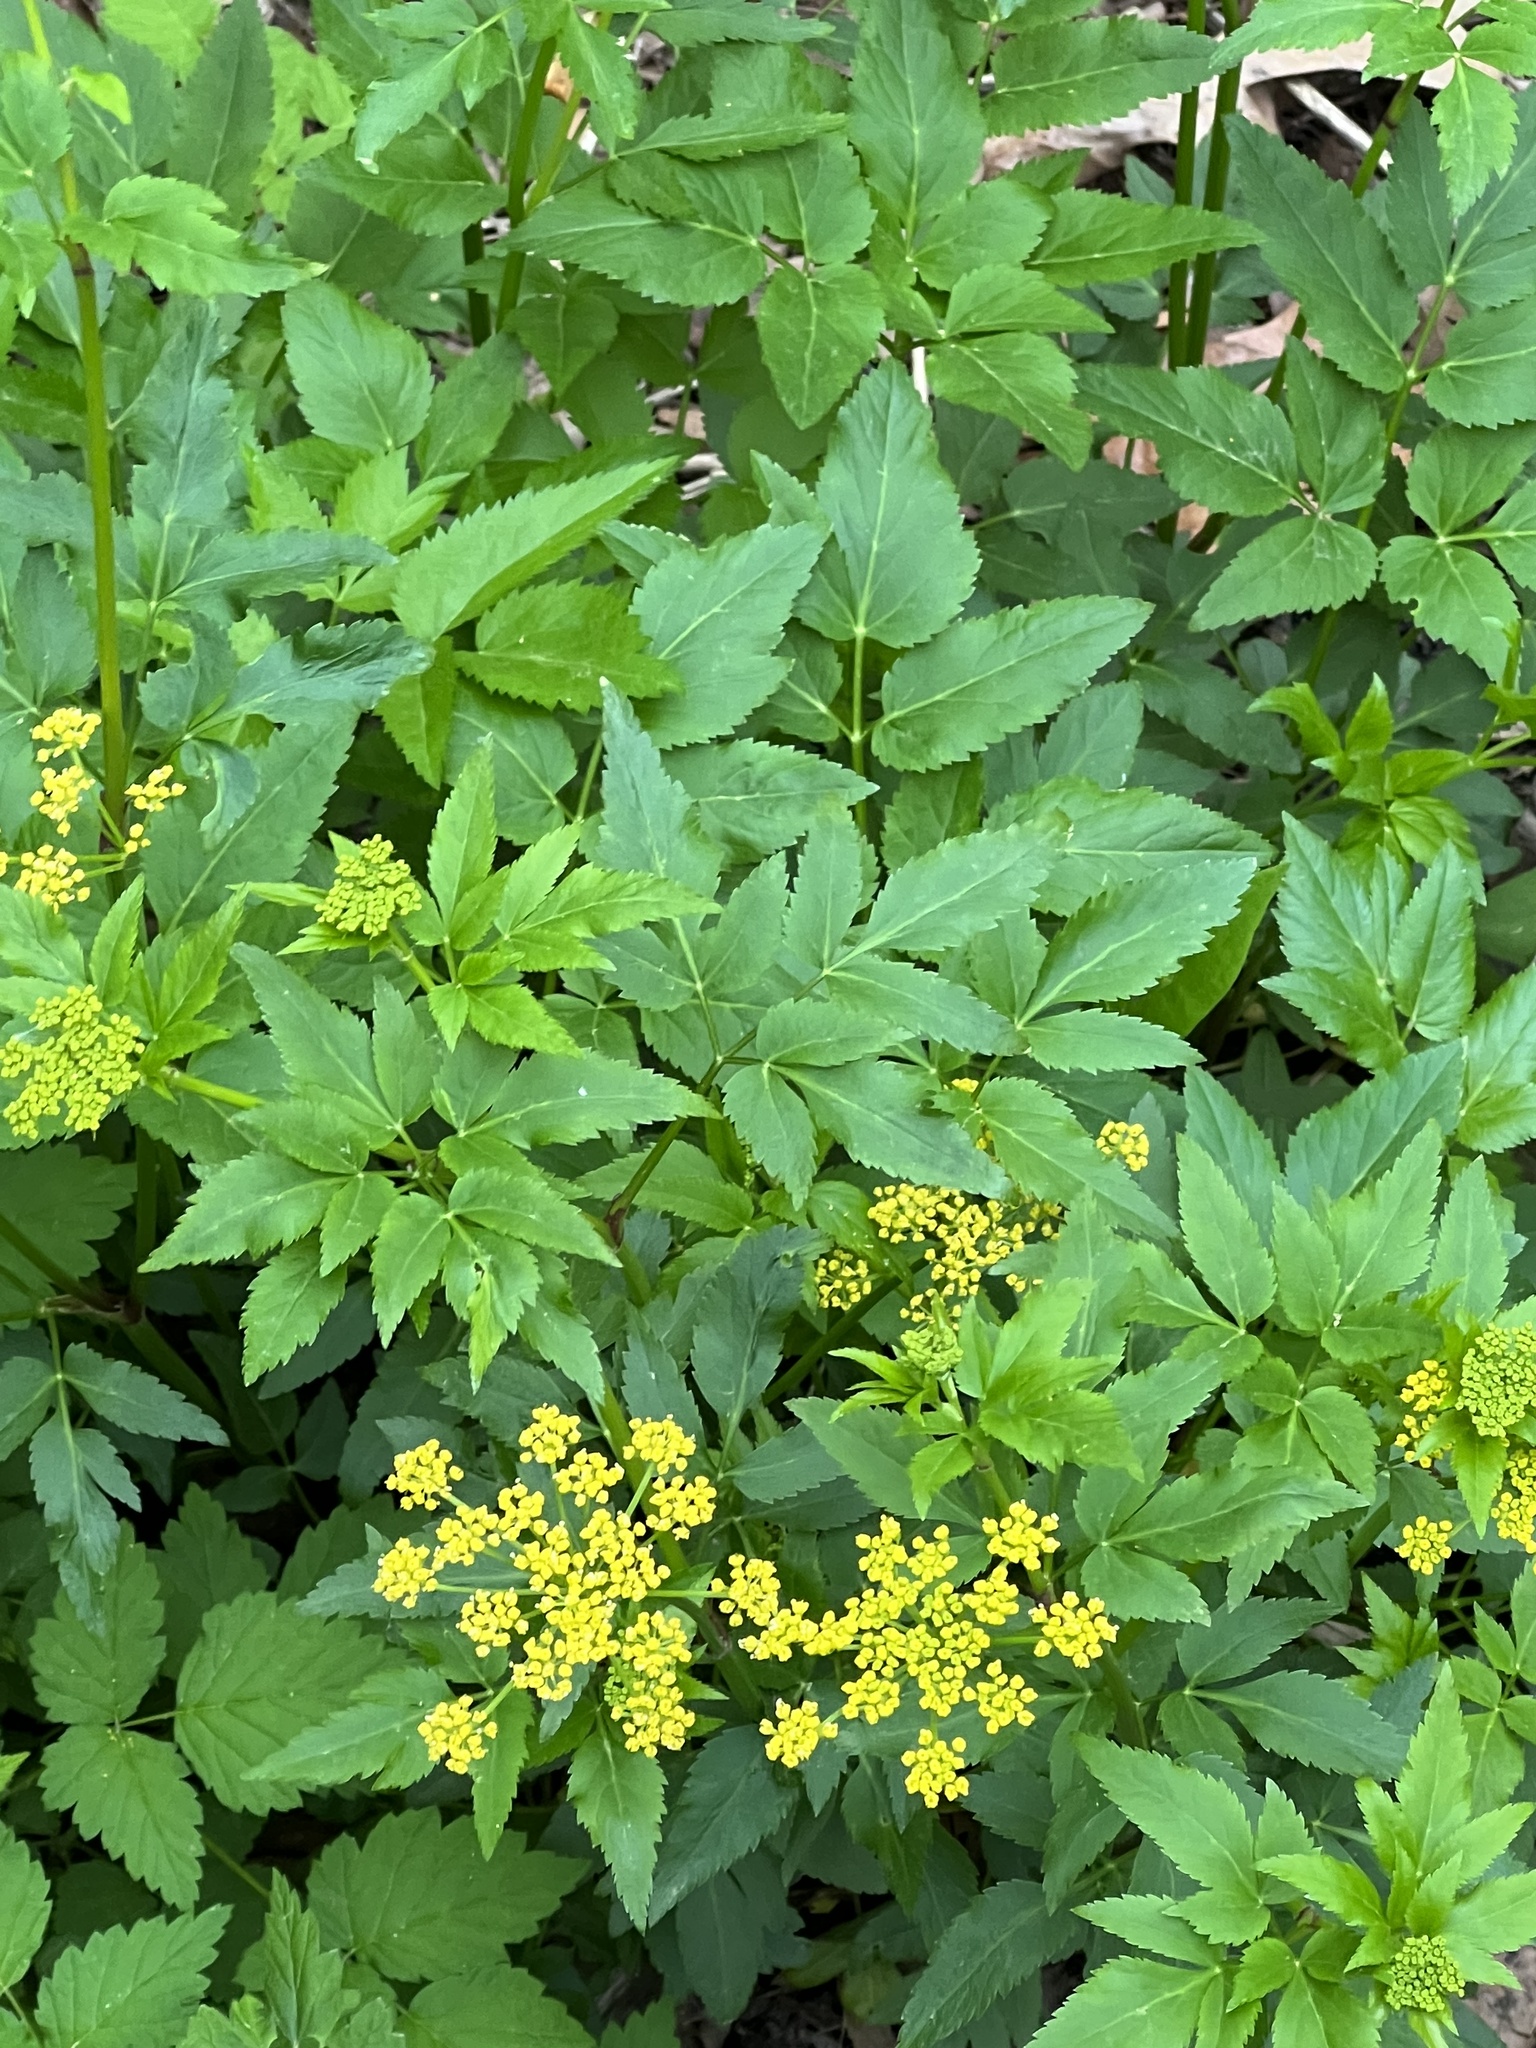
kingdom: Plantae
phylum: Tracheophyta
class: Magnoliopsida
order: Apiales
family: Apiaceae
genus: Zizia
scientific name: Zizia aurea
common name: Golden alexanders
